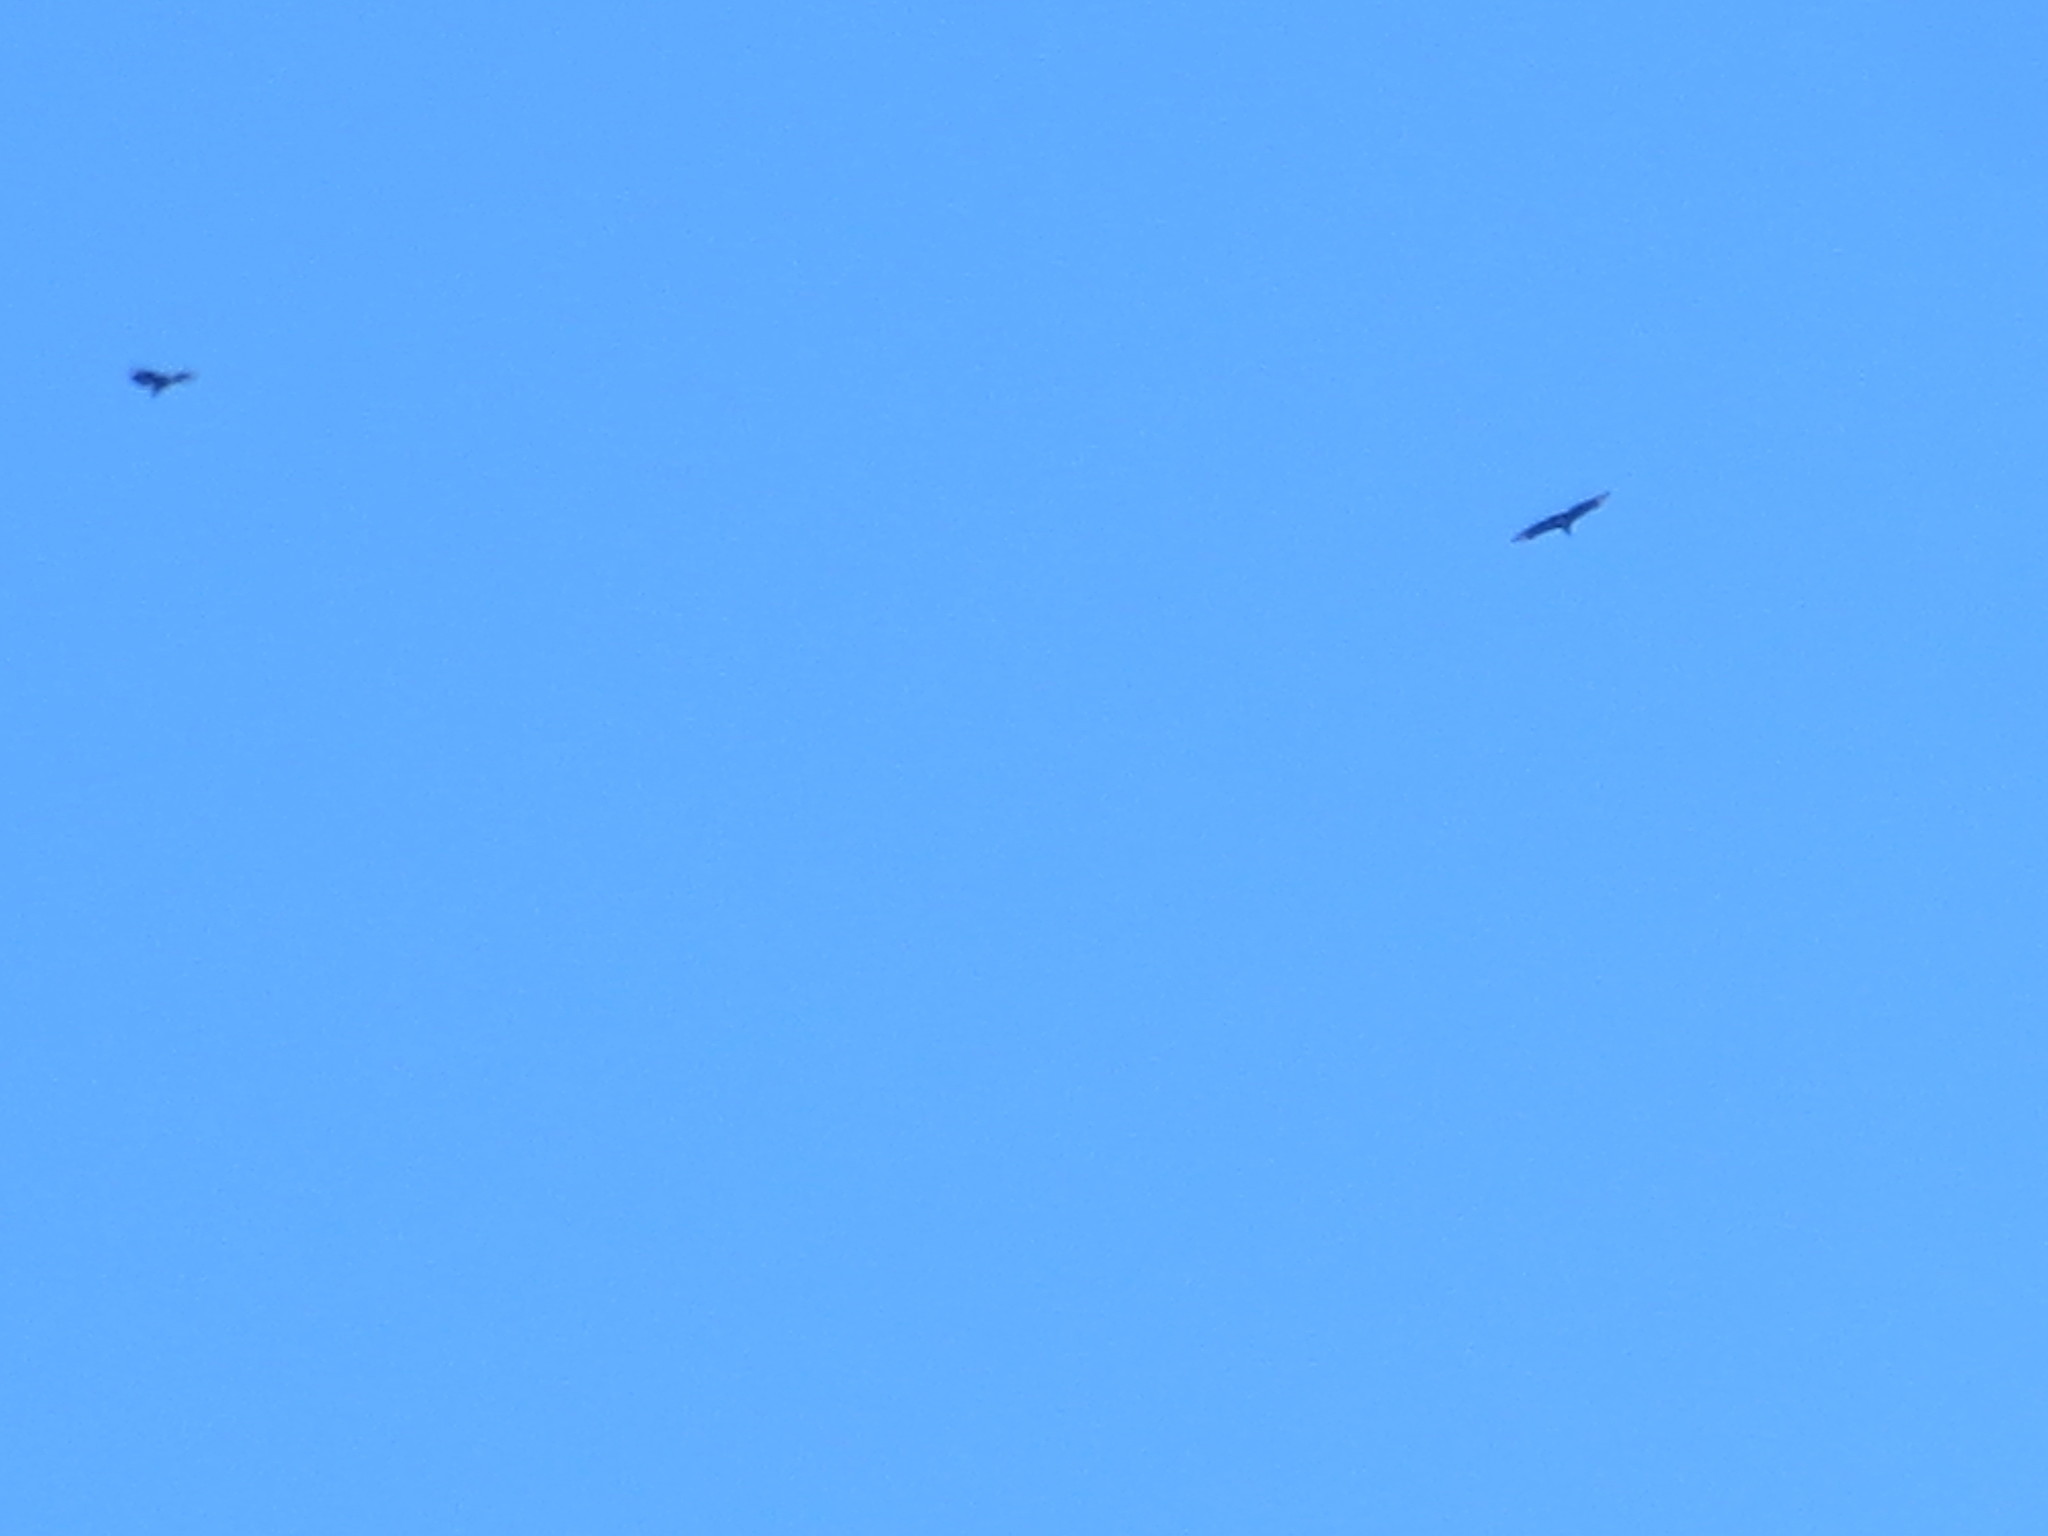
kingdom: Animalia
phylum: Chordata
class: Aves
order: Accipitriformes
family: Cathartidae
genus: Coragyps
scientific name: Coragyps atratus
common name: Black vulture
